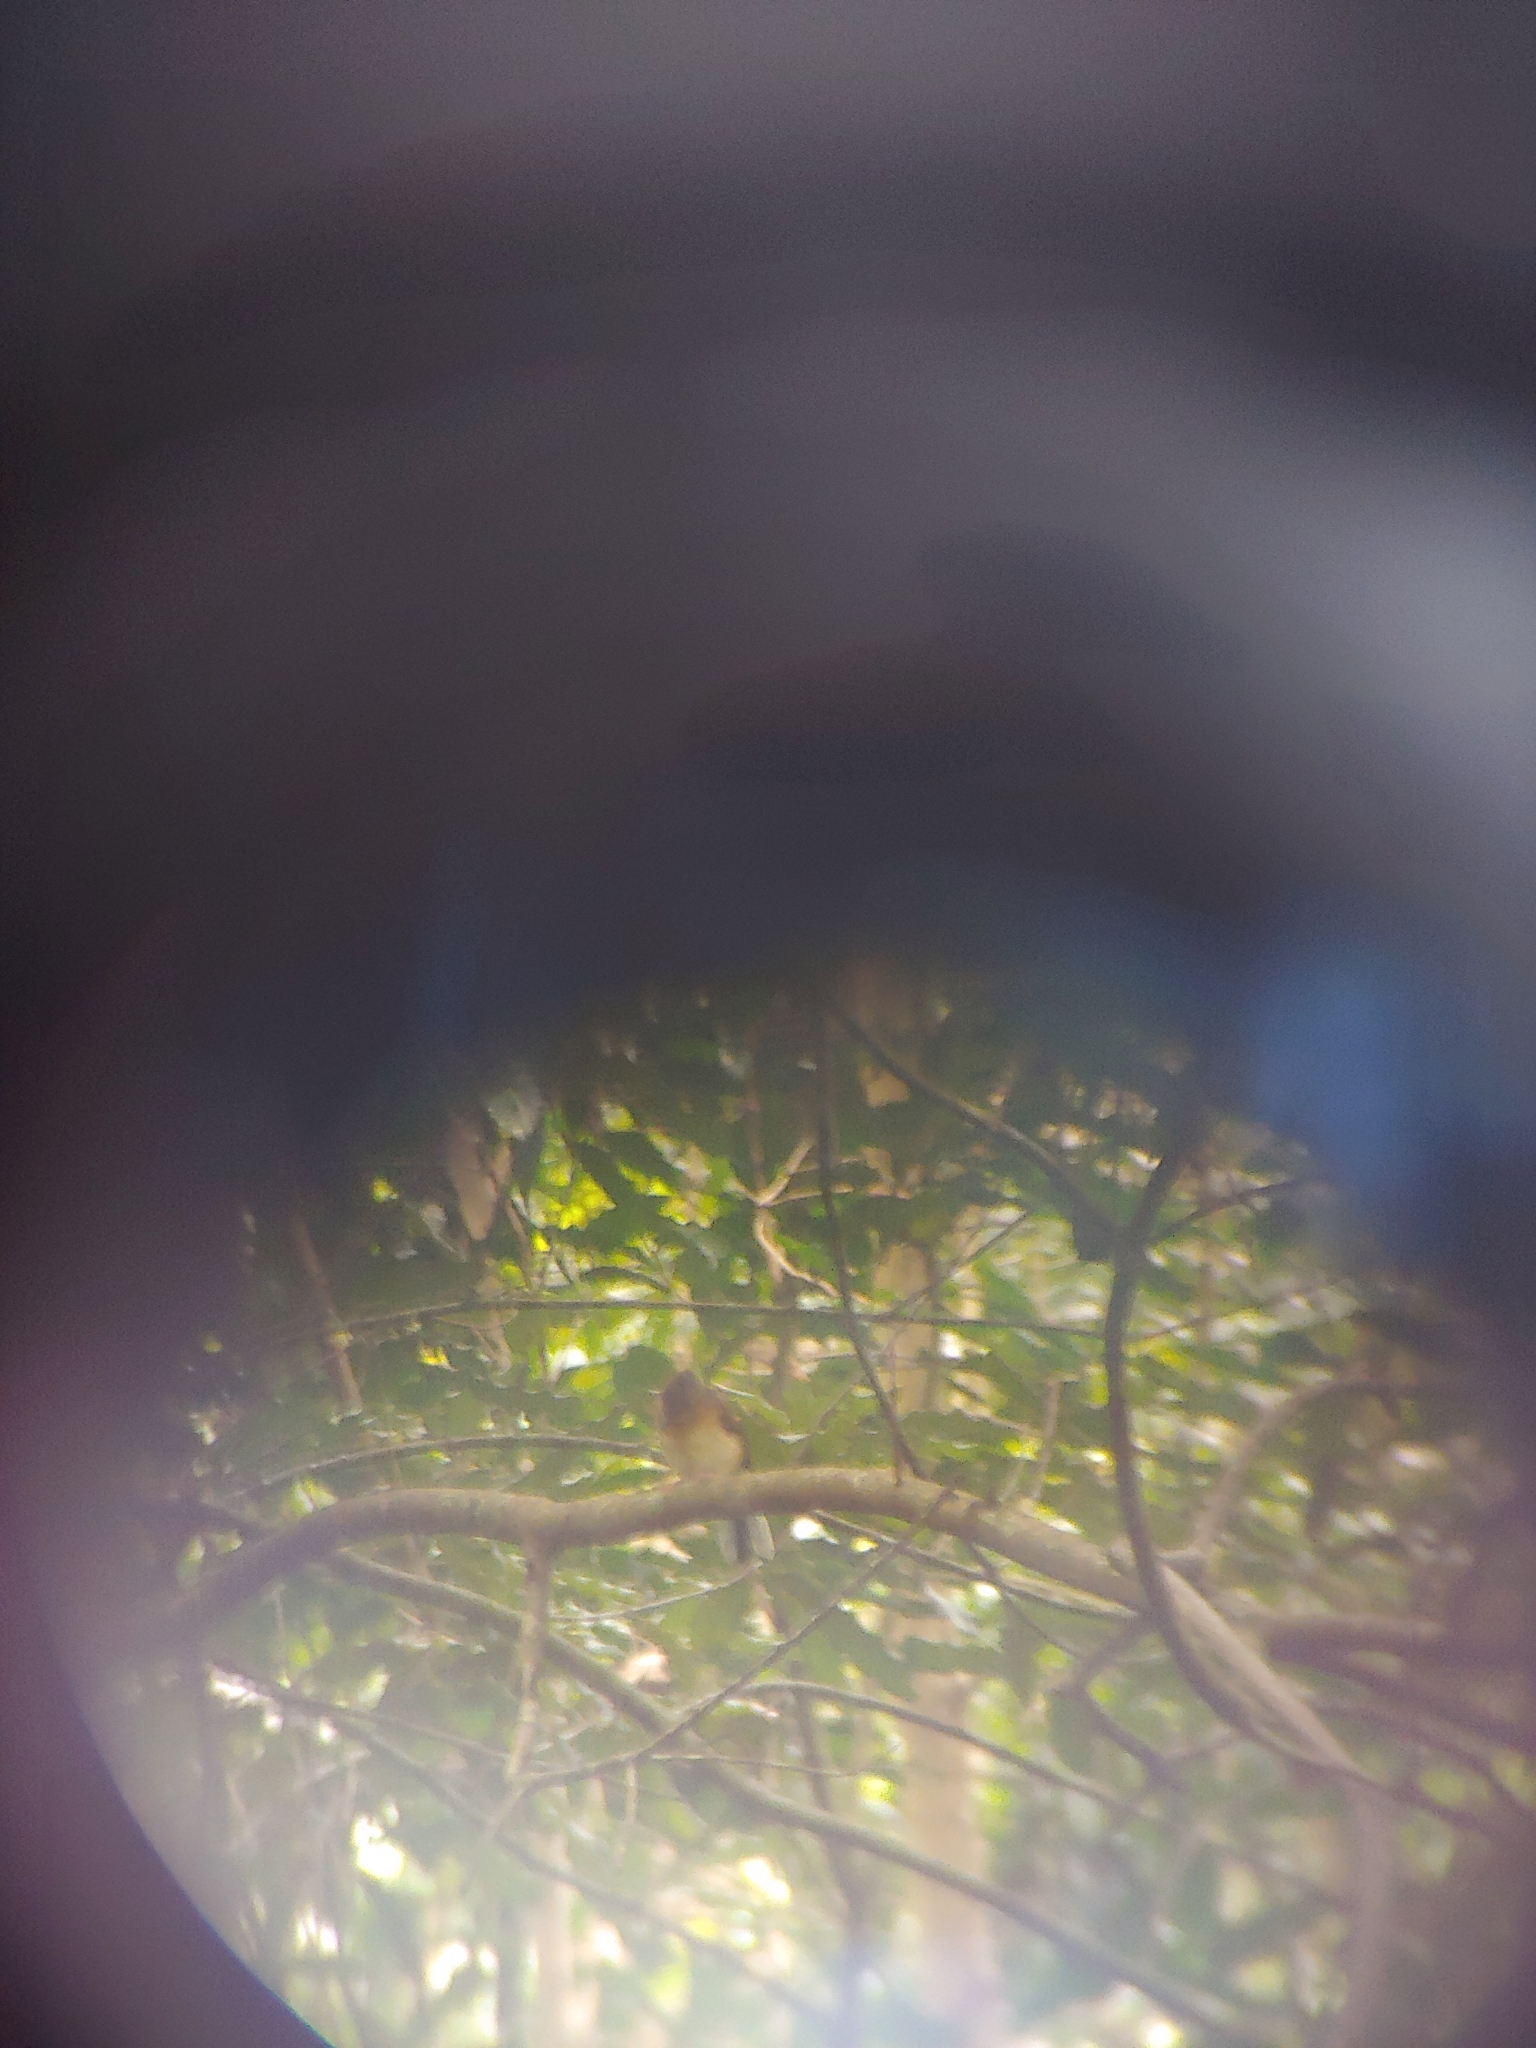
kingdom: Animalia
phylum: Chordata
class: Aves
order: Passeriformes
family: Muscicapidae
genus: Copsychus
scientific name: Copsychus malabaricus
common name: White-rumped shama
